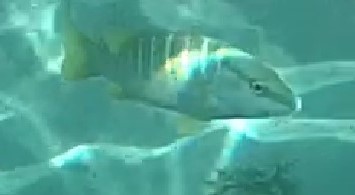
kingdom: Animalia
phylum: Chordata
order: Perciformes
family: Lutjanidae
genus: Lutjanus
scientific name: Lutjanus apodus
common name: Schoolmaster
